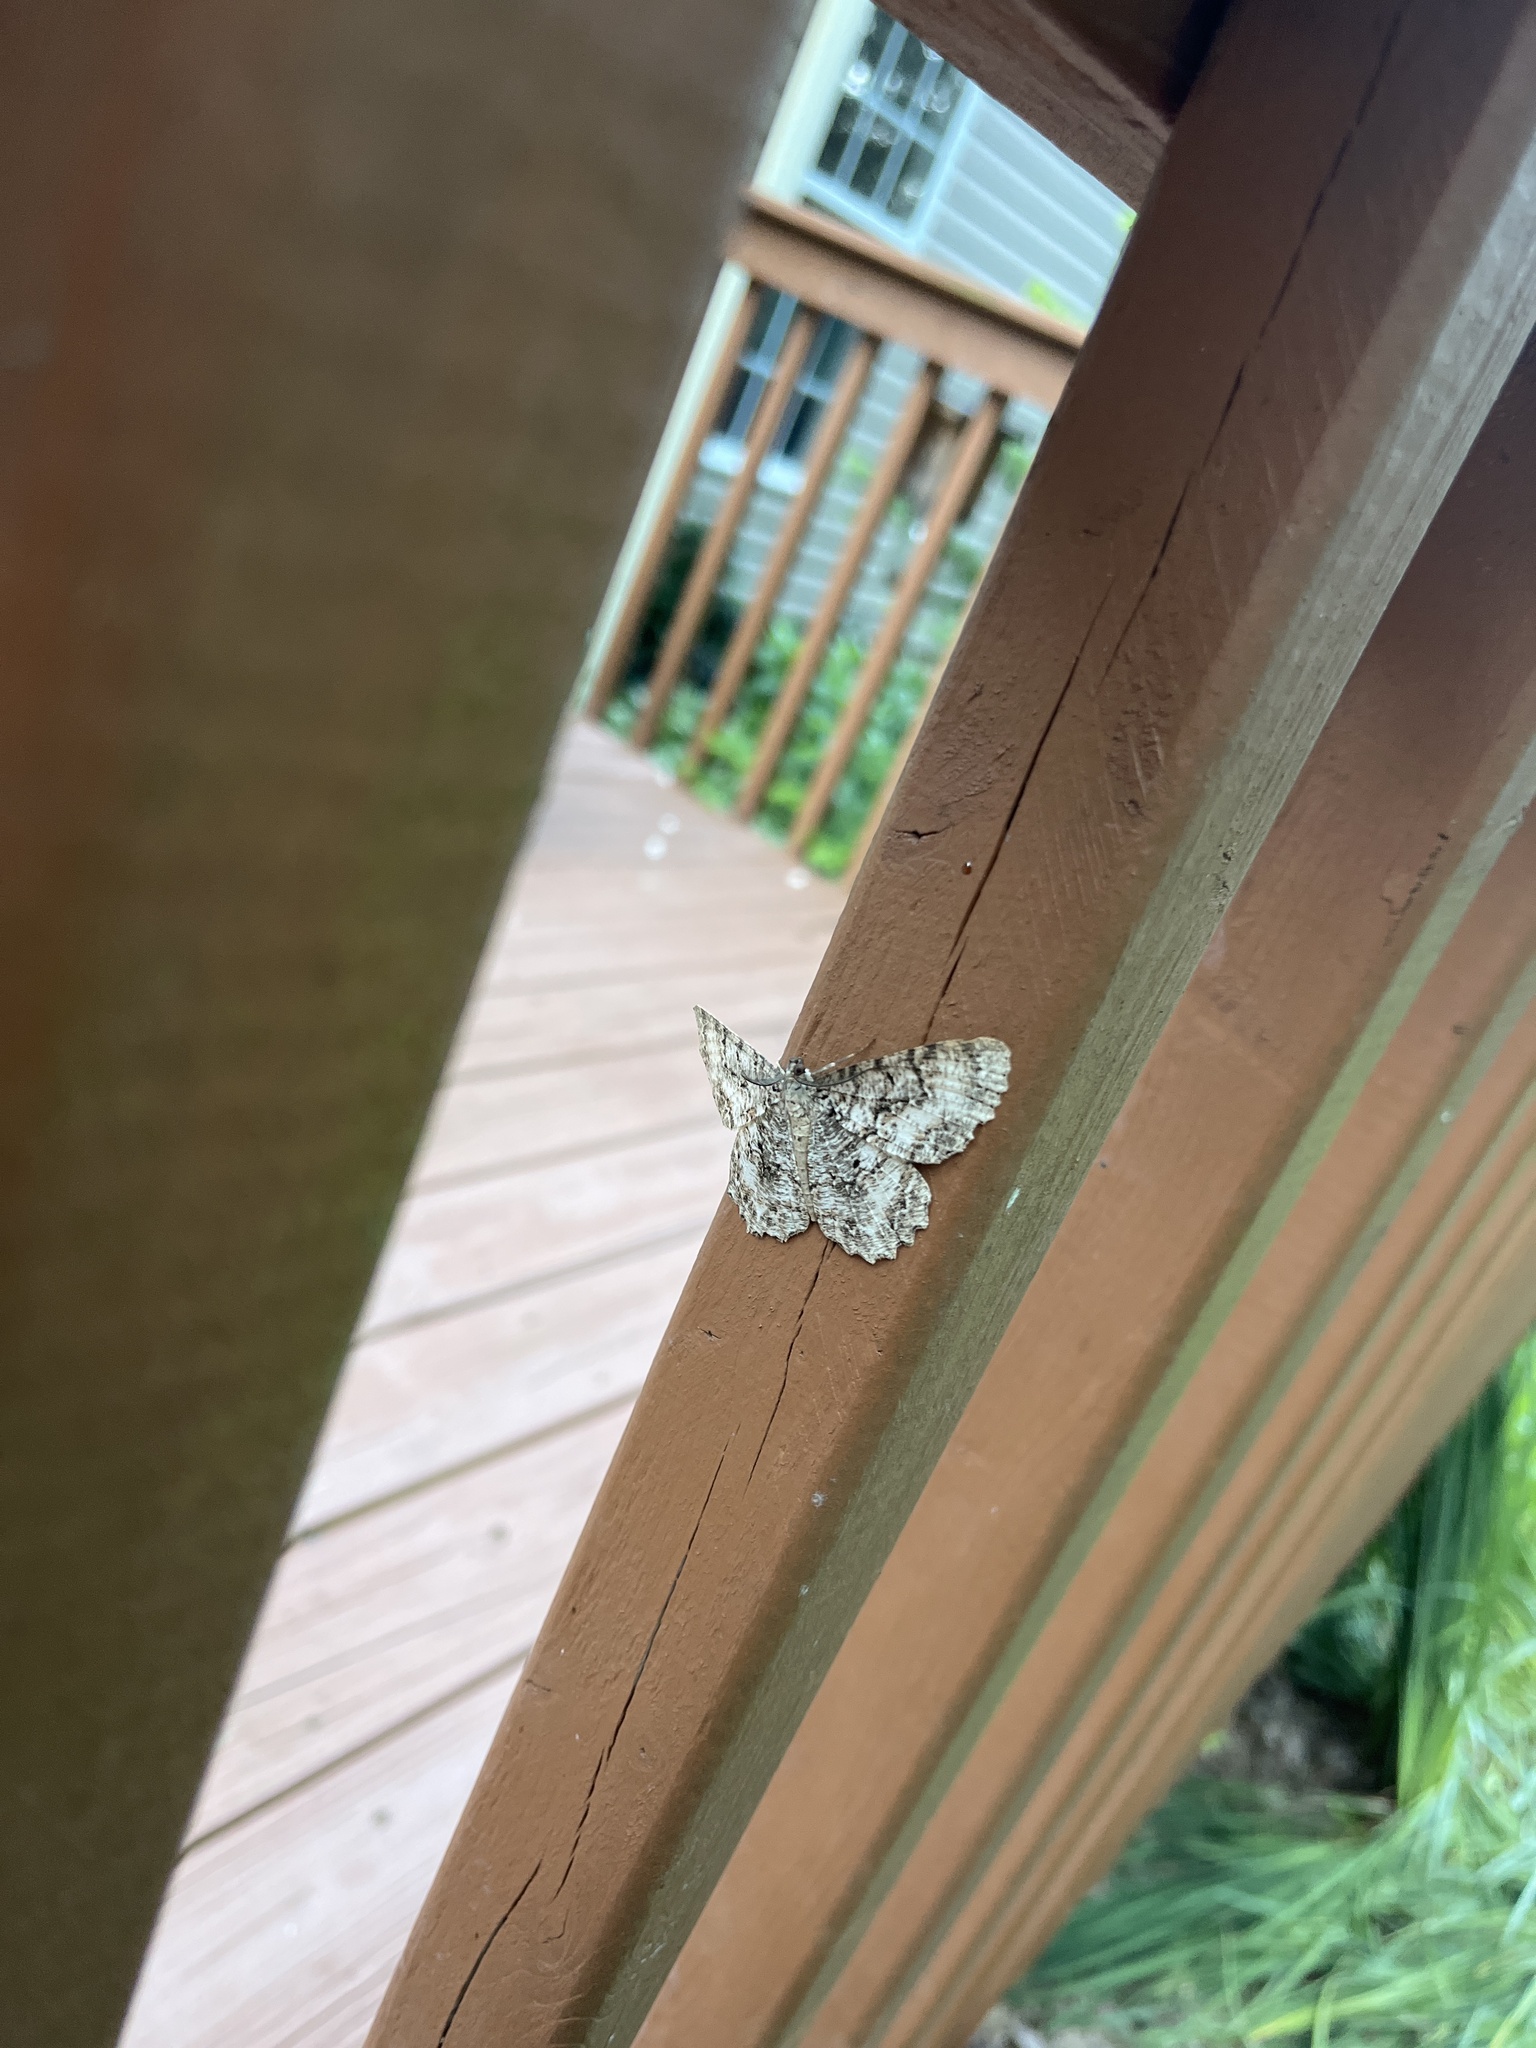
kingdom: Animalia
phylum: Arthropoda
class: Insecta
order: Lepidoptera
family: Geometridae
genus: Epimecis
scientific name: Epimecis hortaria
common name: Tulip-tree beauty
